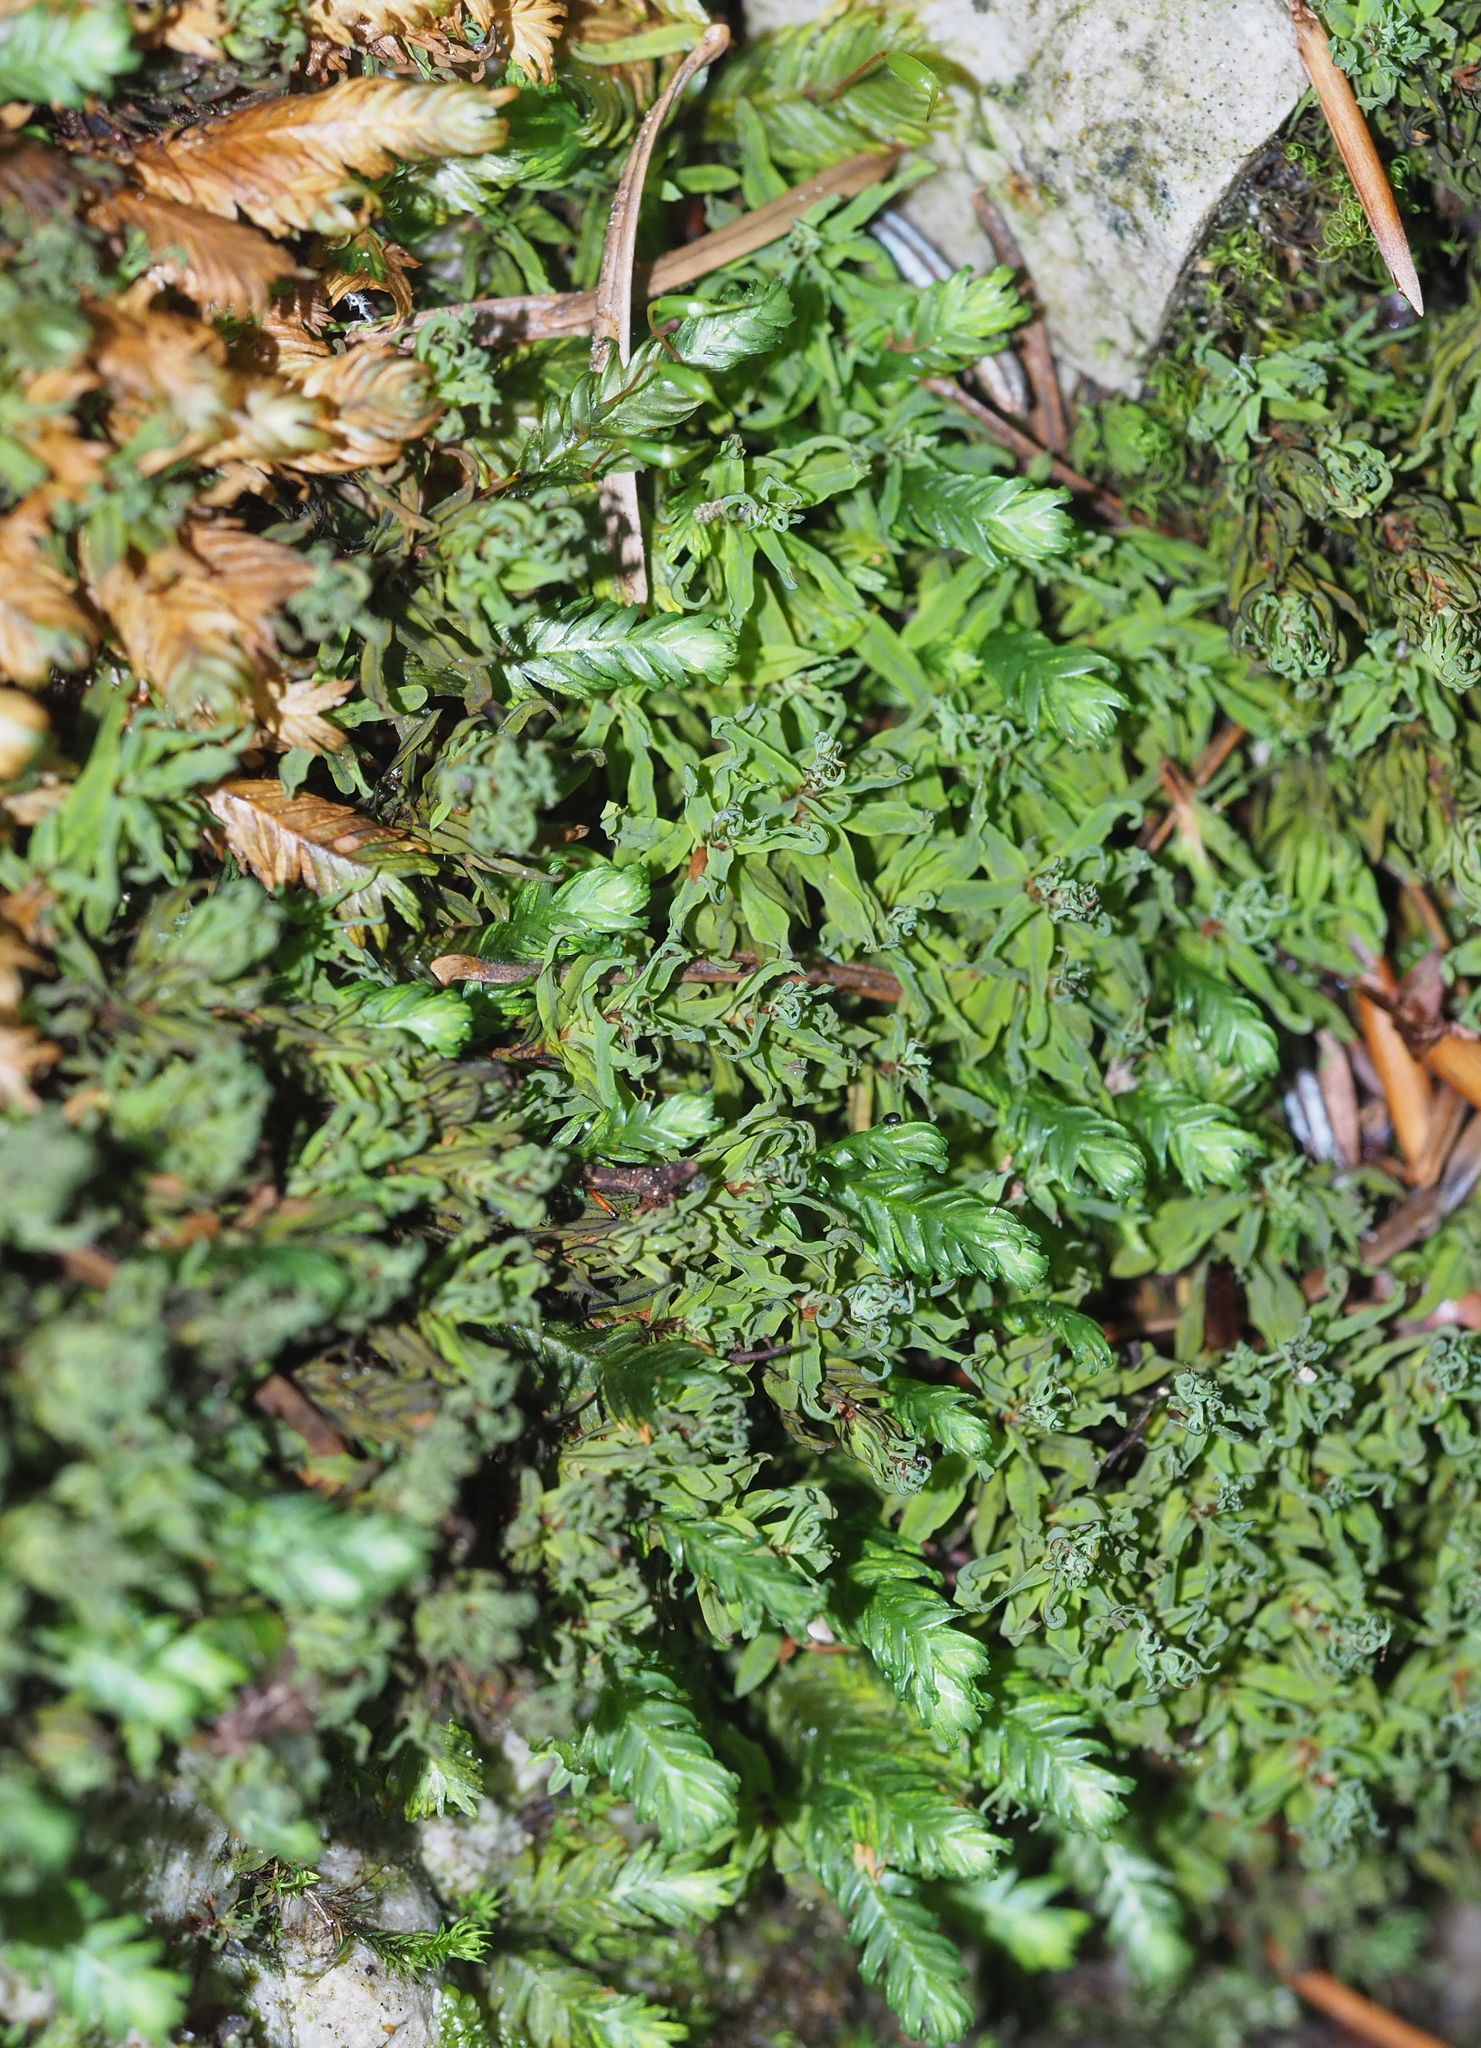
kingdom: Plantae
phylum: Bryophyta
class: Bryopsida
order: Dicranales
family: Fissidentaceae
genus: Fissidens
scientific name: Fissidens dubius
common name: Rock pocket moss
